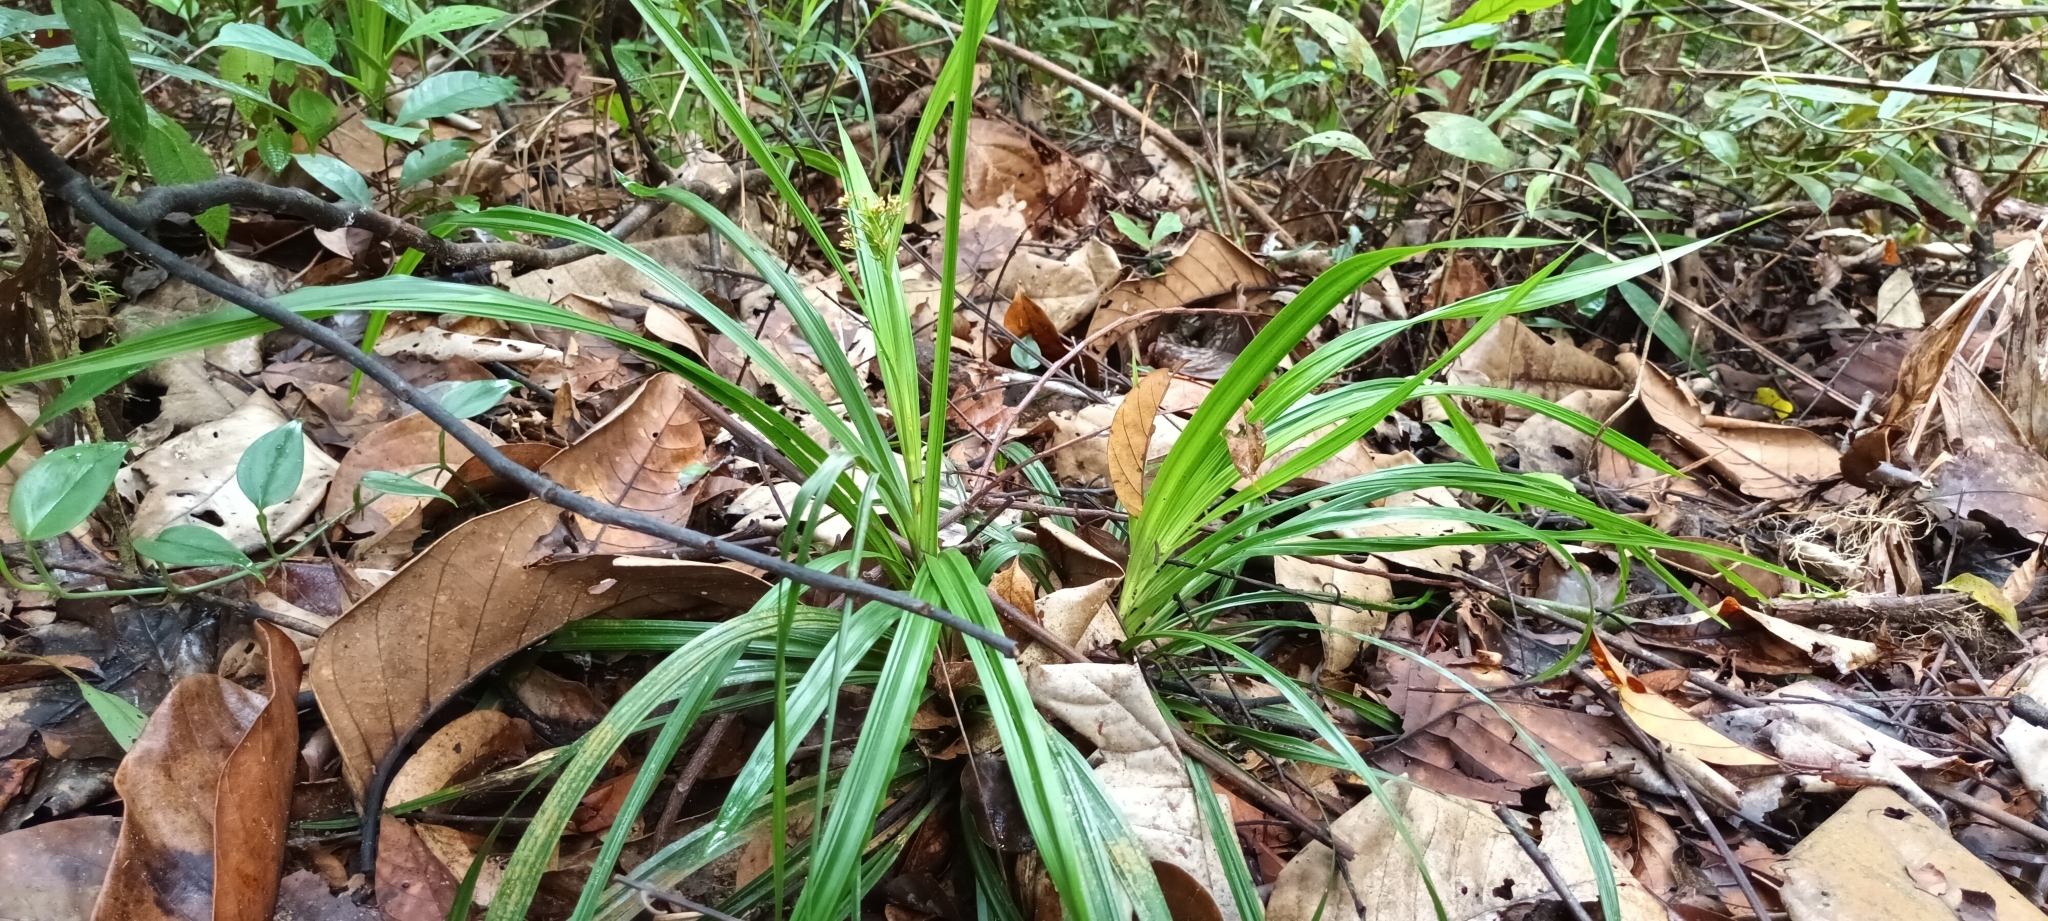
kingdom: Plantae
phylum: Tracheophyta
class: Liliopsida
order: Poales
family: Cyperaceae
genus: Hypolytrum
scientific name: Hypolytrum nemorum
